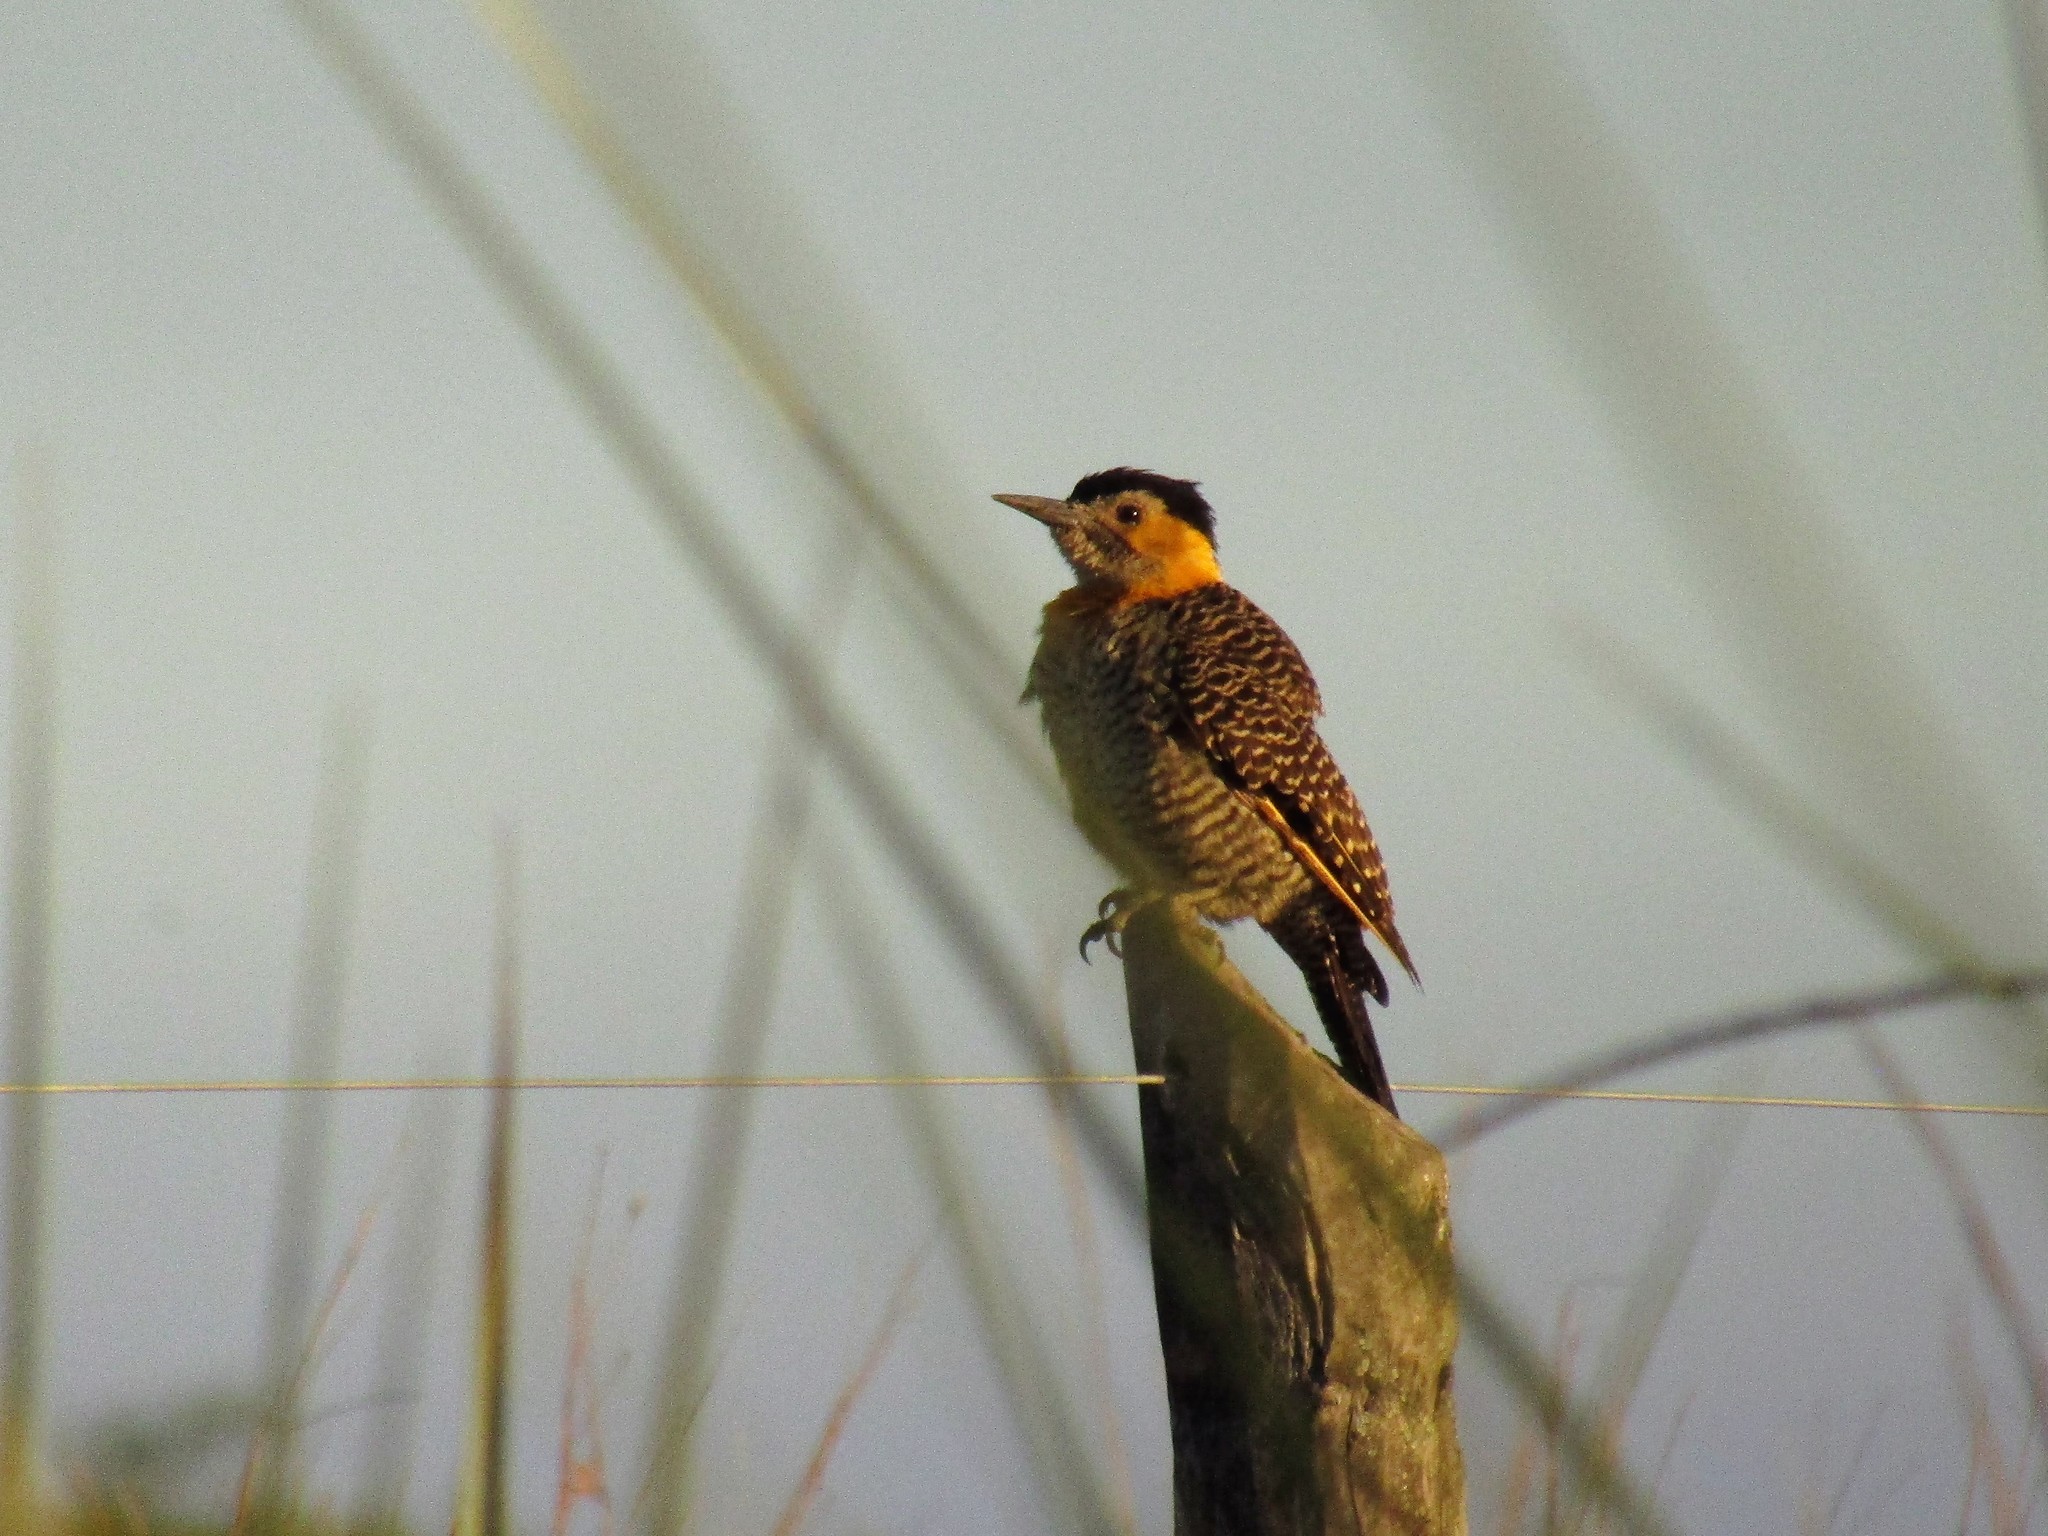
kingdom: Animalia
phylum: Chordata
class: Aves
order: Piciformes
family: Picidae
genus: Colaptes
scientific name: Colaptes campestris
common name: Campo flicker
